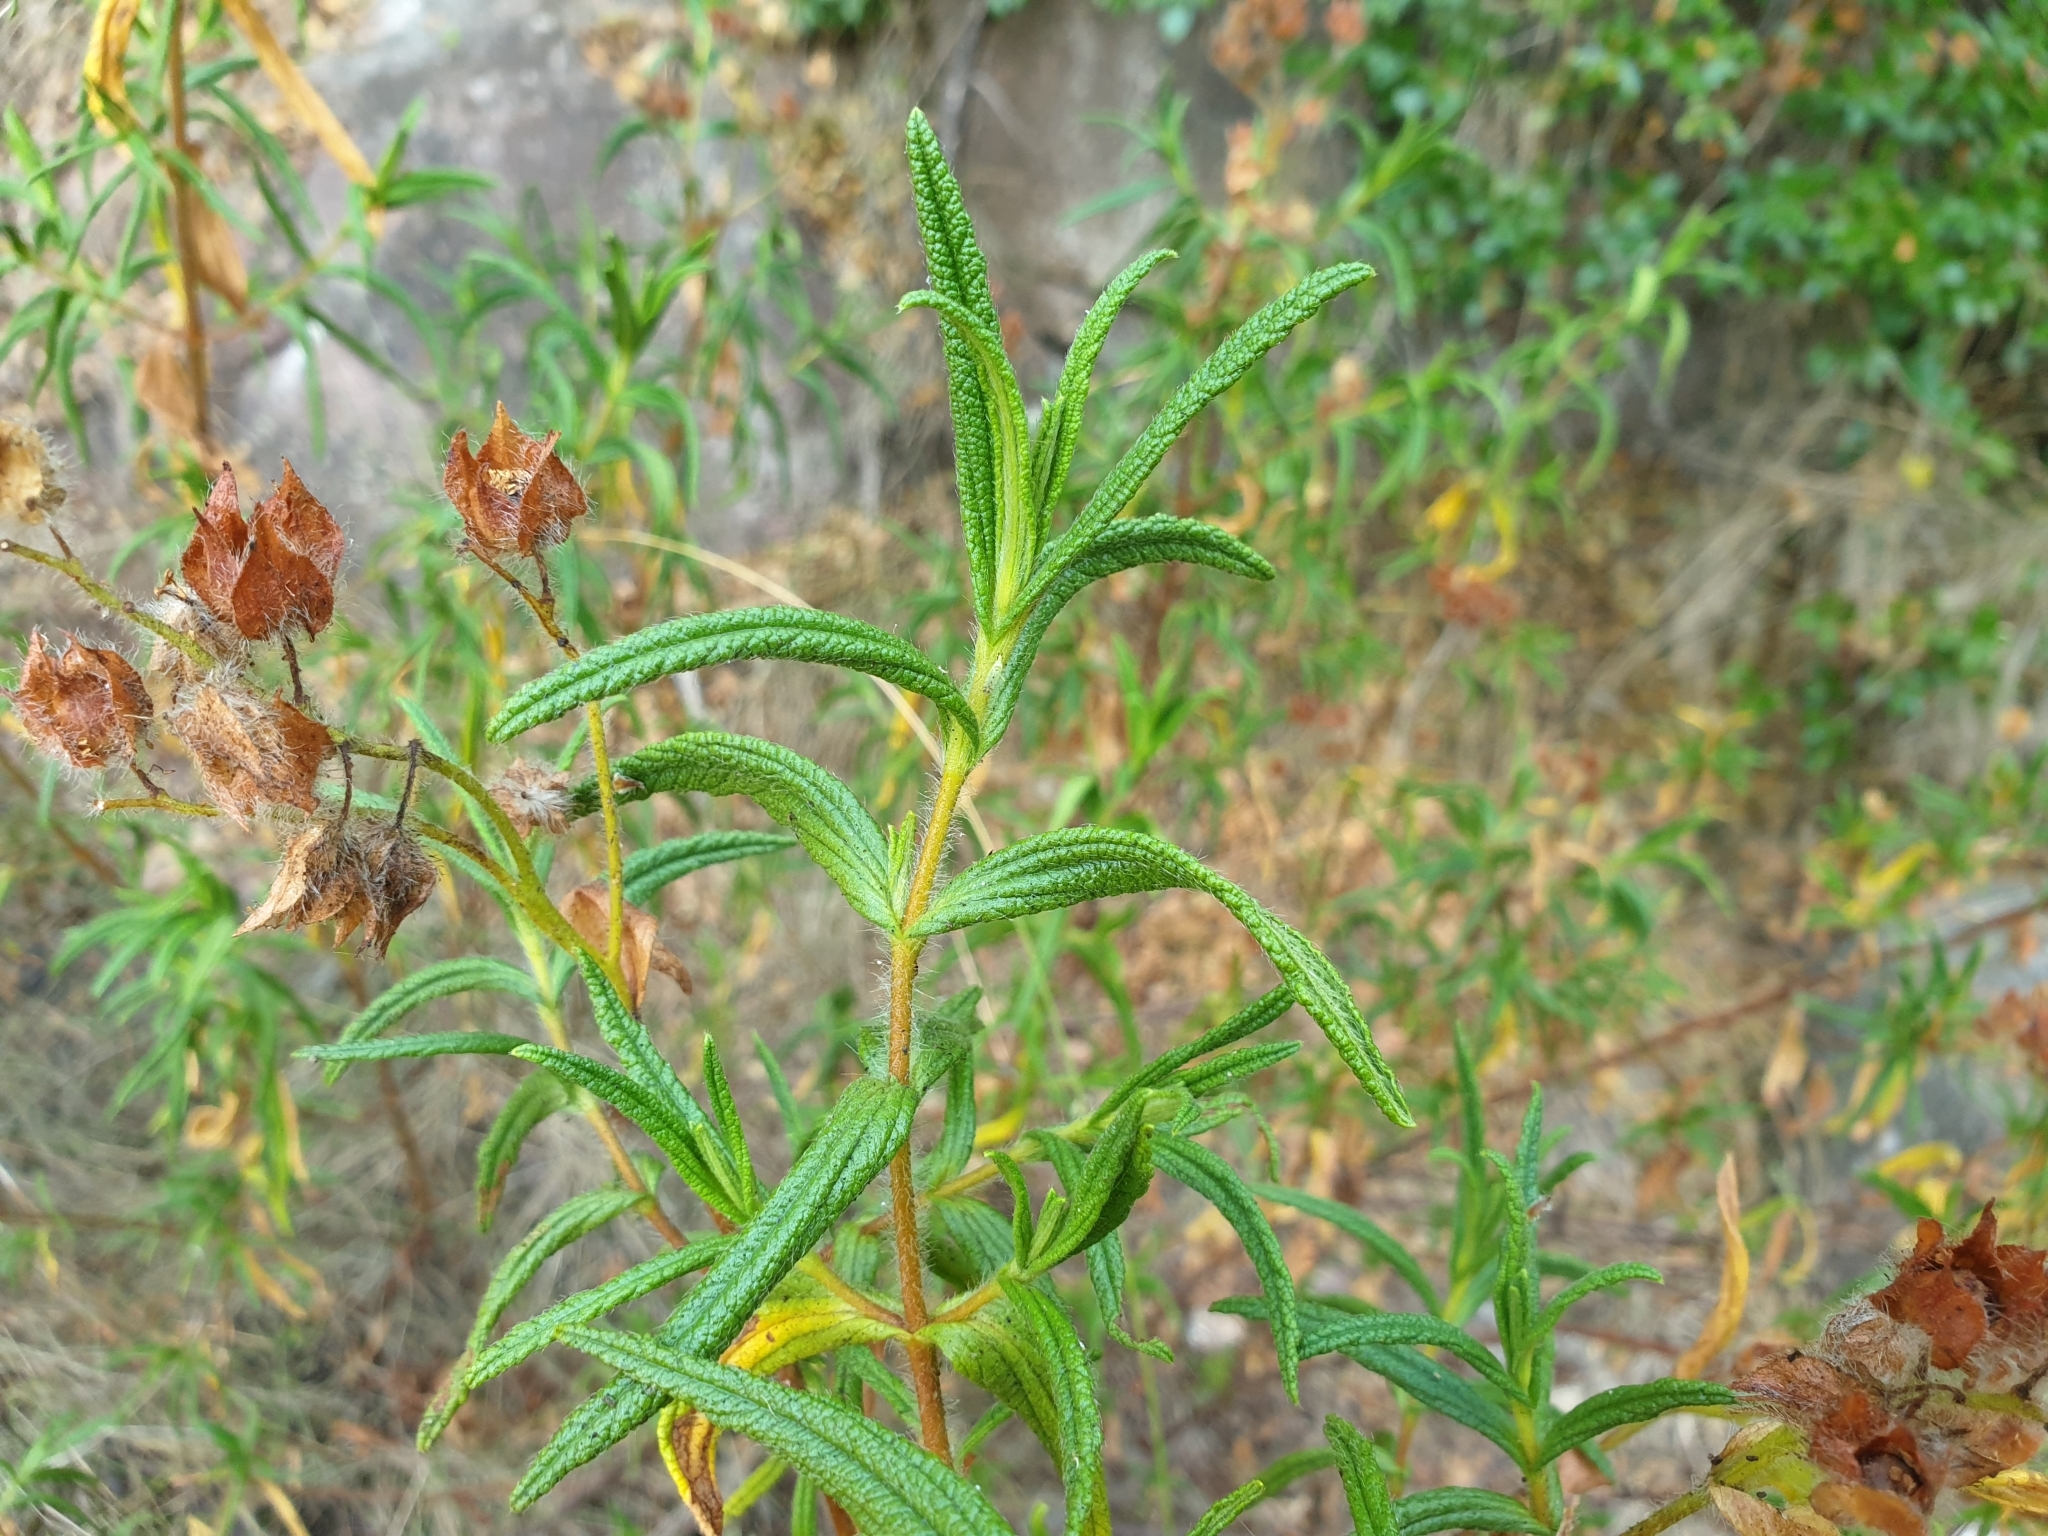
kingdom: Plantae
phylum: Tracheophyta
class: Magnoliopsida
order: Malvales
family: Cistaceae
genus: Cistus
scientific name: Cistus monspeliensis
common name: Montpelier cistus
